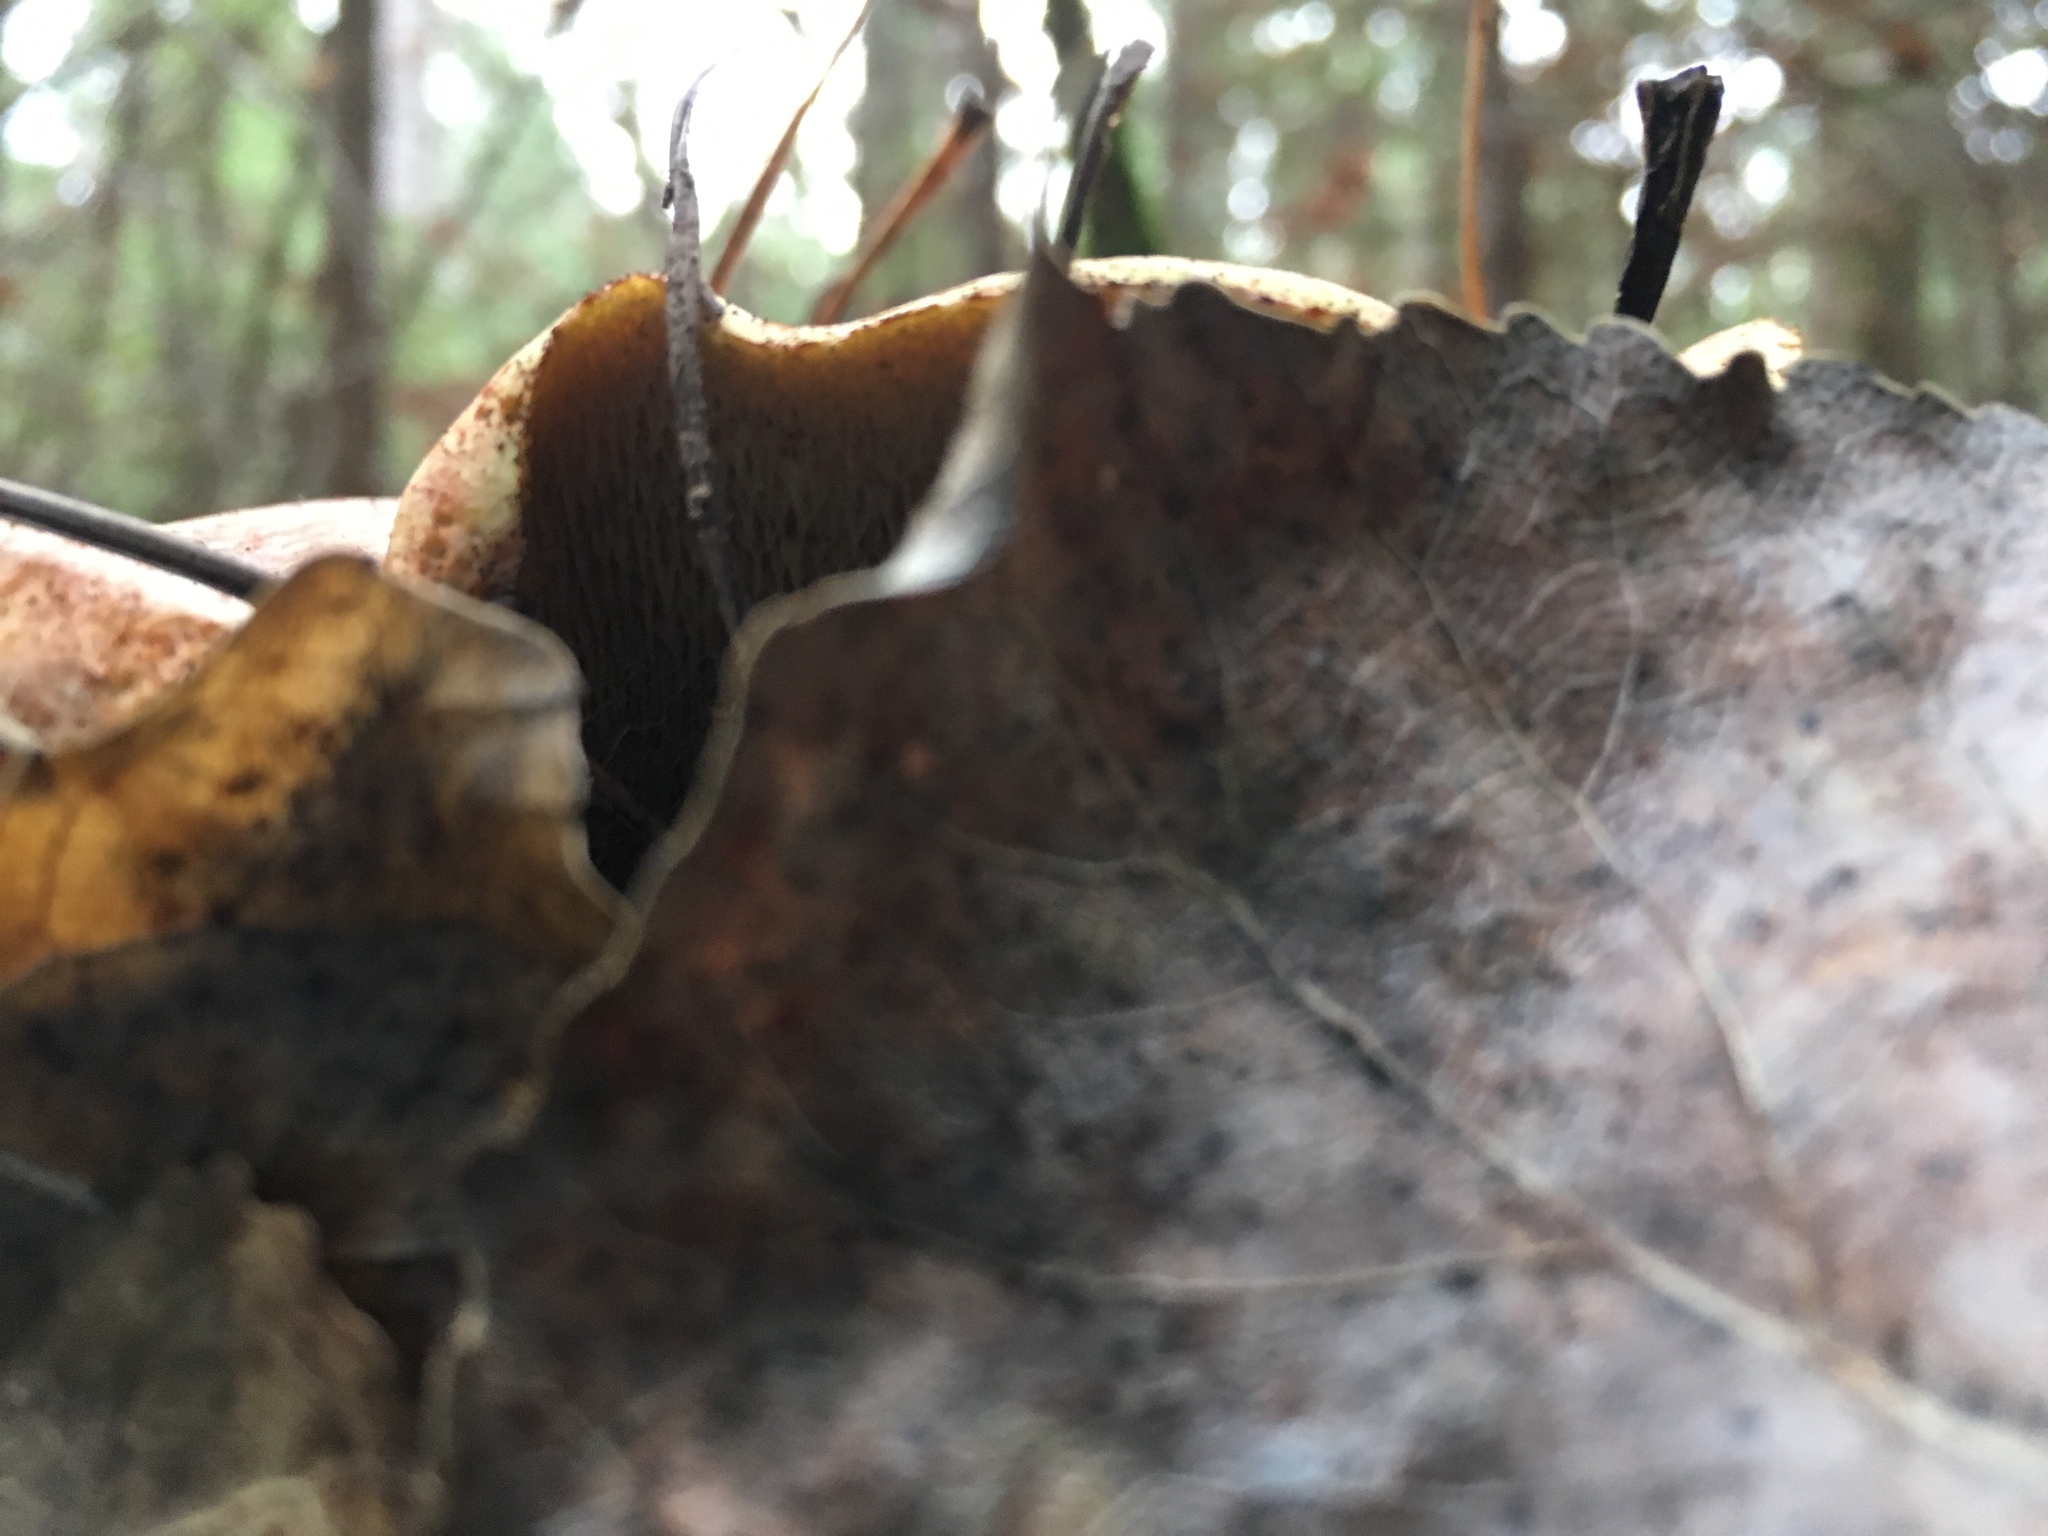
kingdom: Fungi
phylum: Basidiomycota
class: Agaricomycetes
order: Boletales
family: Suillaceae
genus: Suillus
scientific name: Suillus caerulescens
